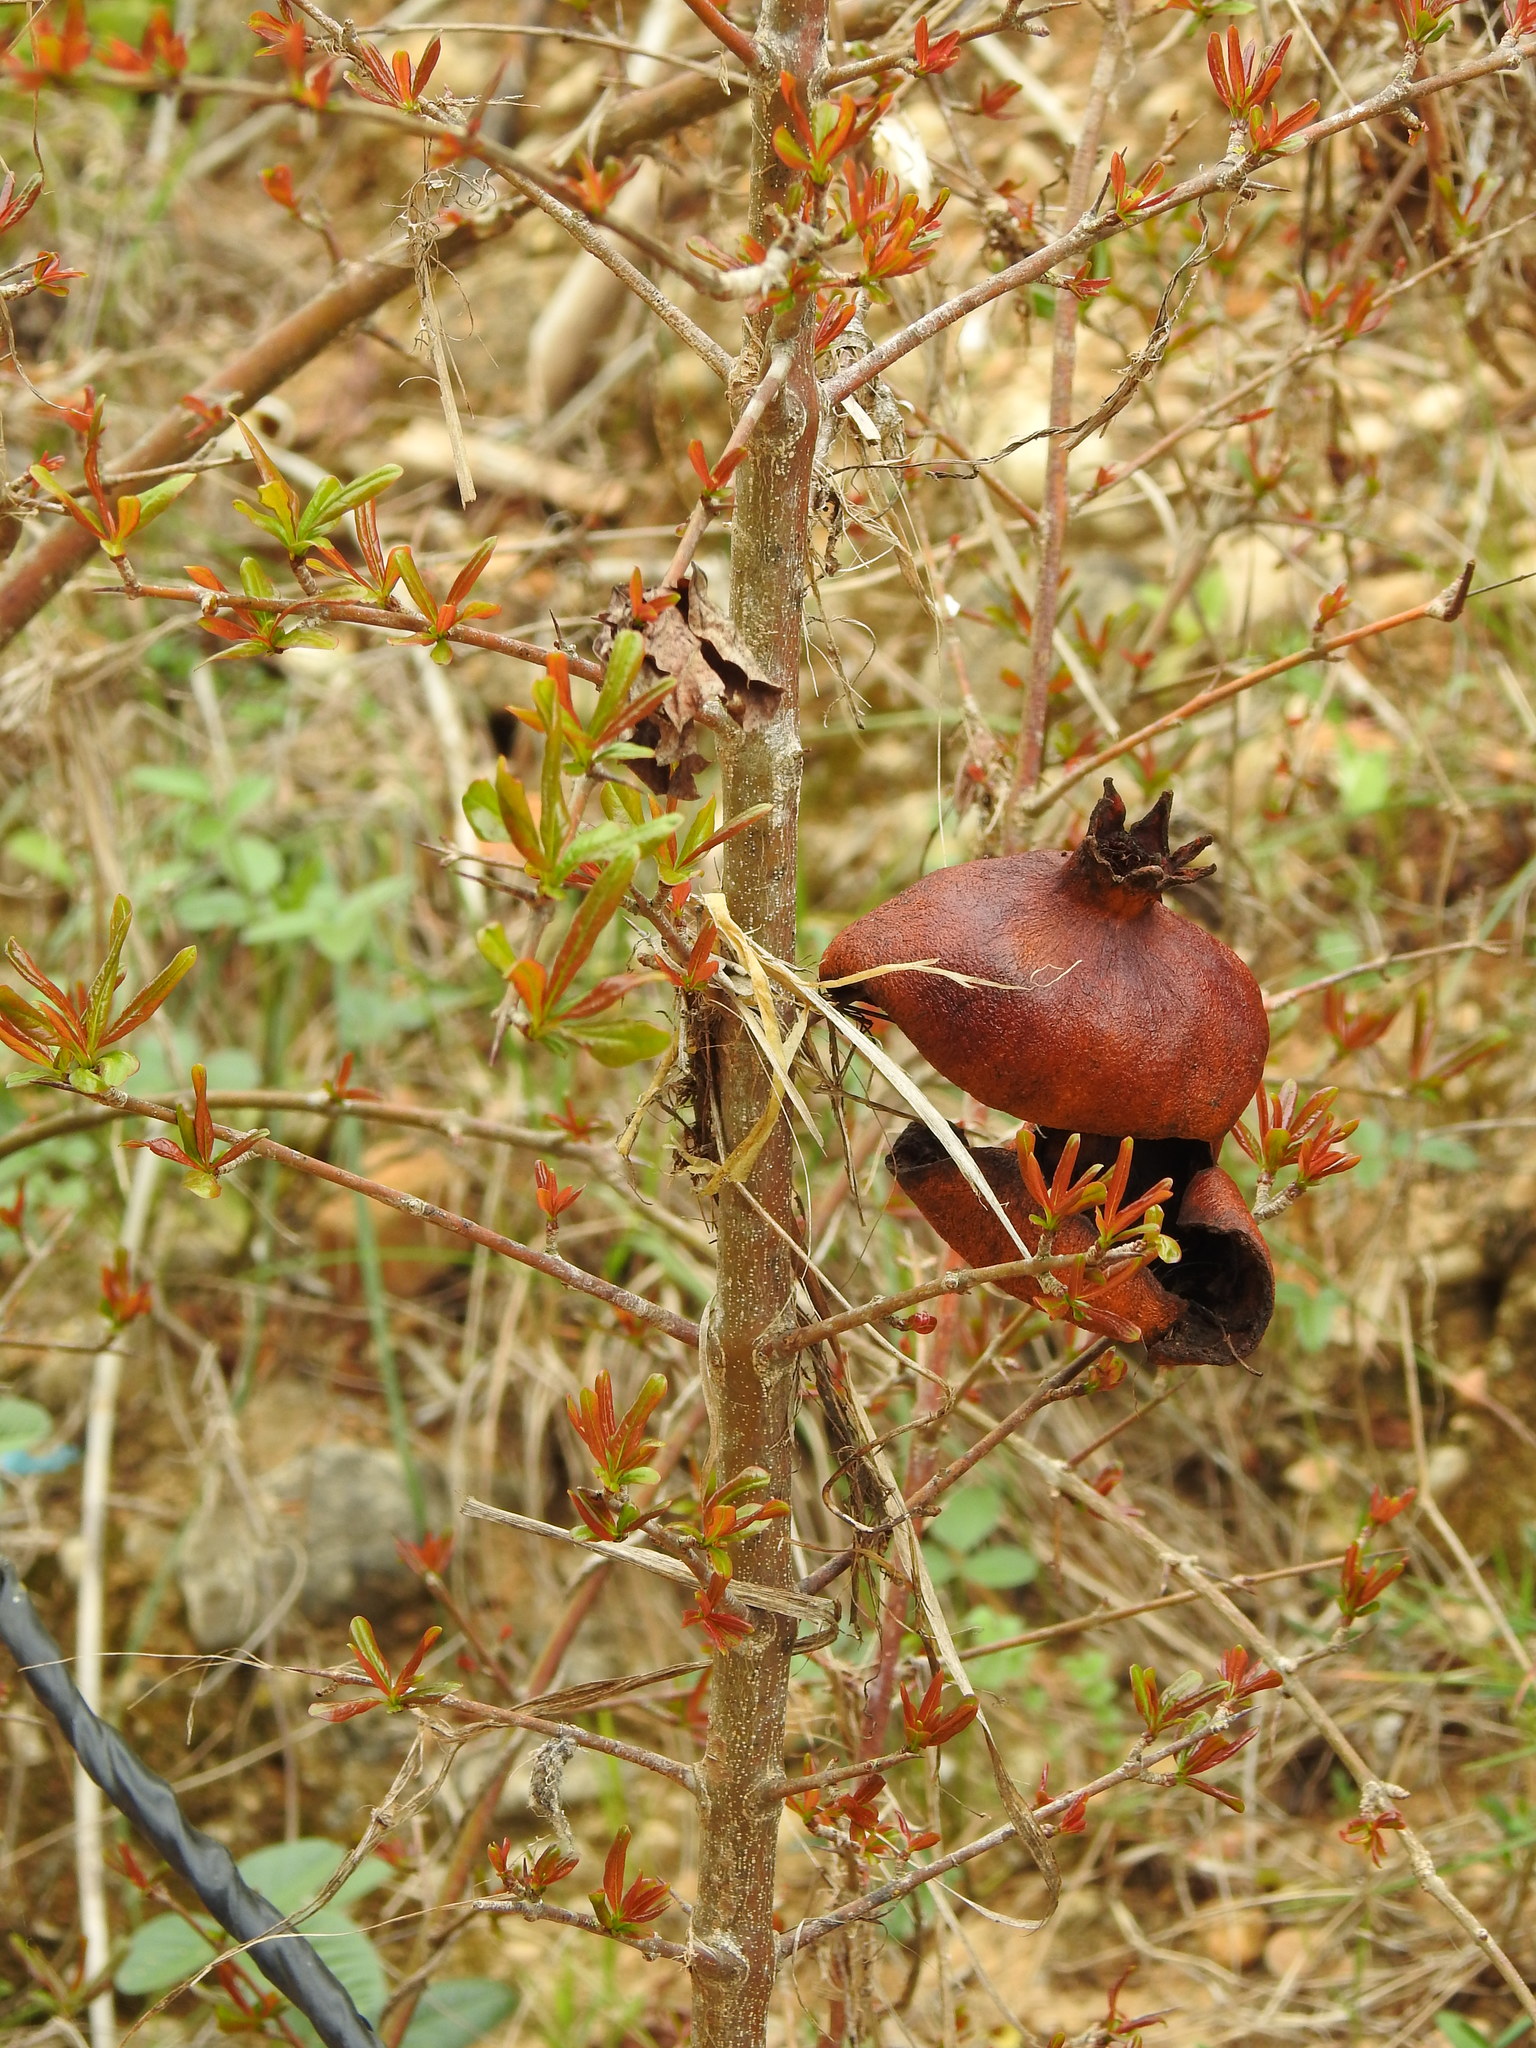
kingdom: Plantae
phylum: Tracheophyta
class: Magnoliopsida
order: Myrtales
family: Lythraceae
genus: Punica
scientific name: Punica granatum
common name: Pomegranate
